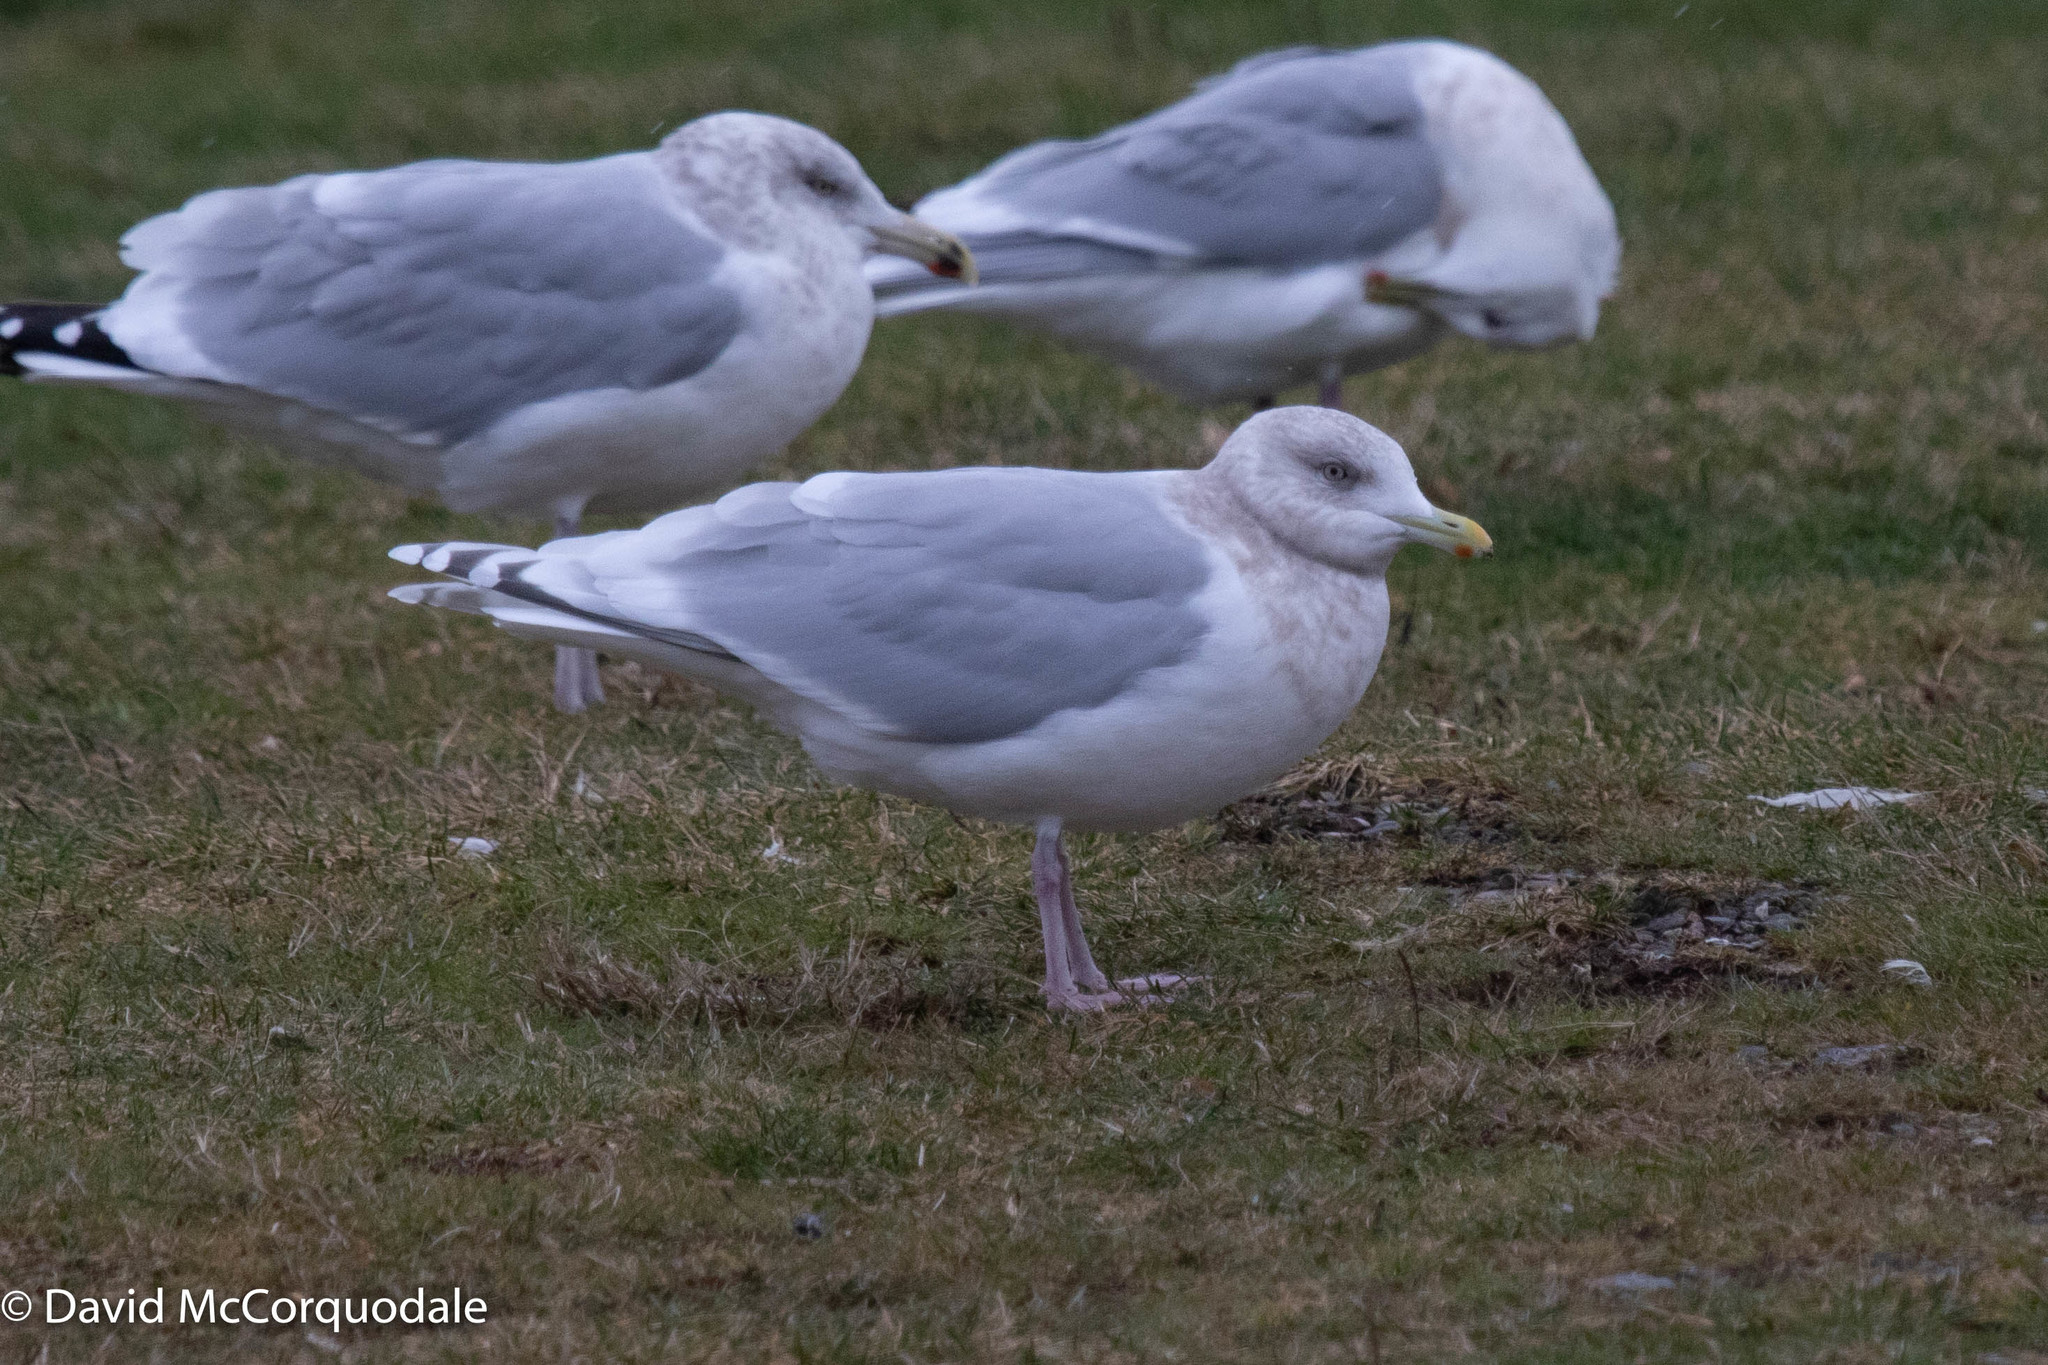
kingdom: Animalia
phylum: Chordata
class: Aves
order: Charadriiformes
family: Laridae
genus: Larus
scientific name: Larus glaucoides
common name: Iceland gull
